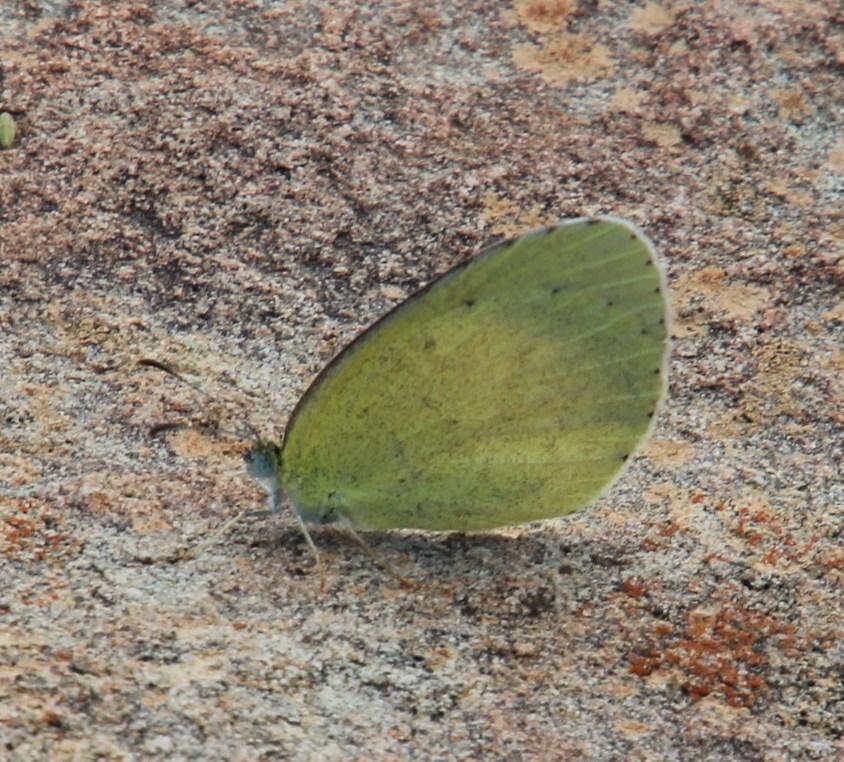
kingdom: Animalia
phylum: Arthropoda
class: Insecta
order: Lepidoptera
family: Pieridae
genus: Eurema
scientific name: Eurema brigitta
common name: Small grass yellow
